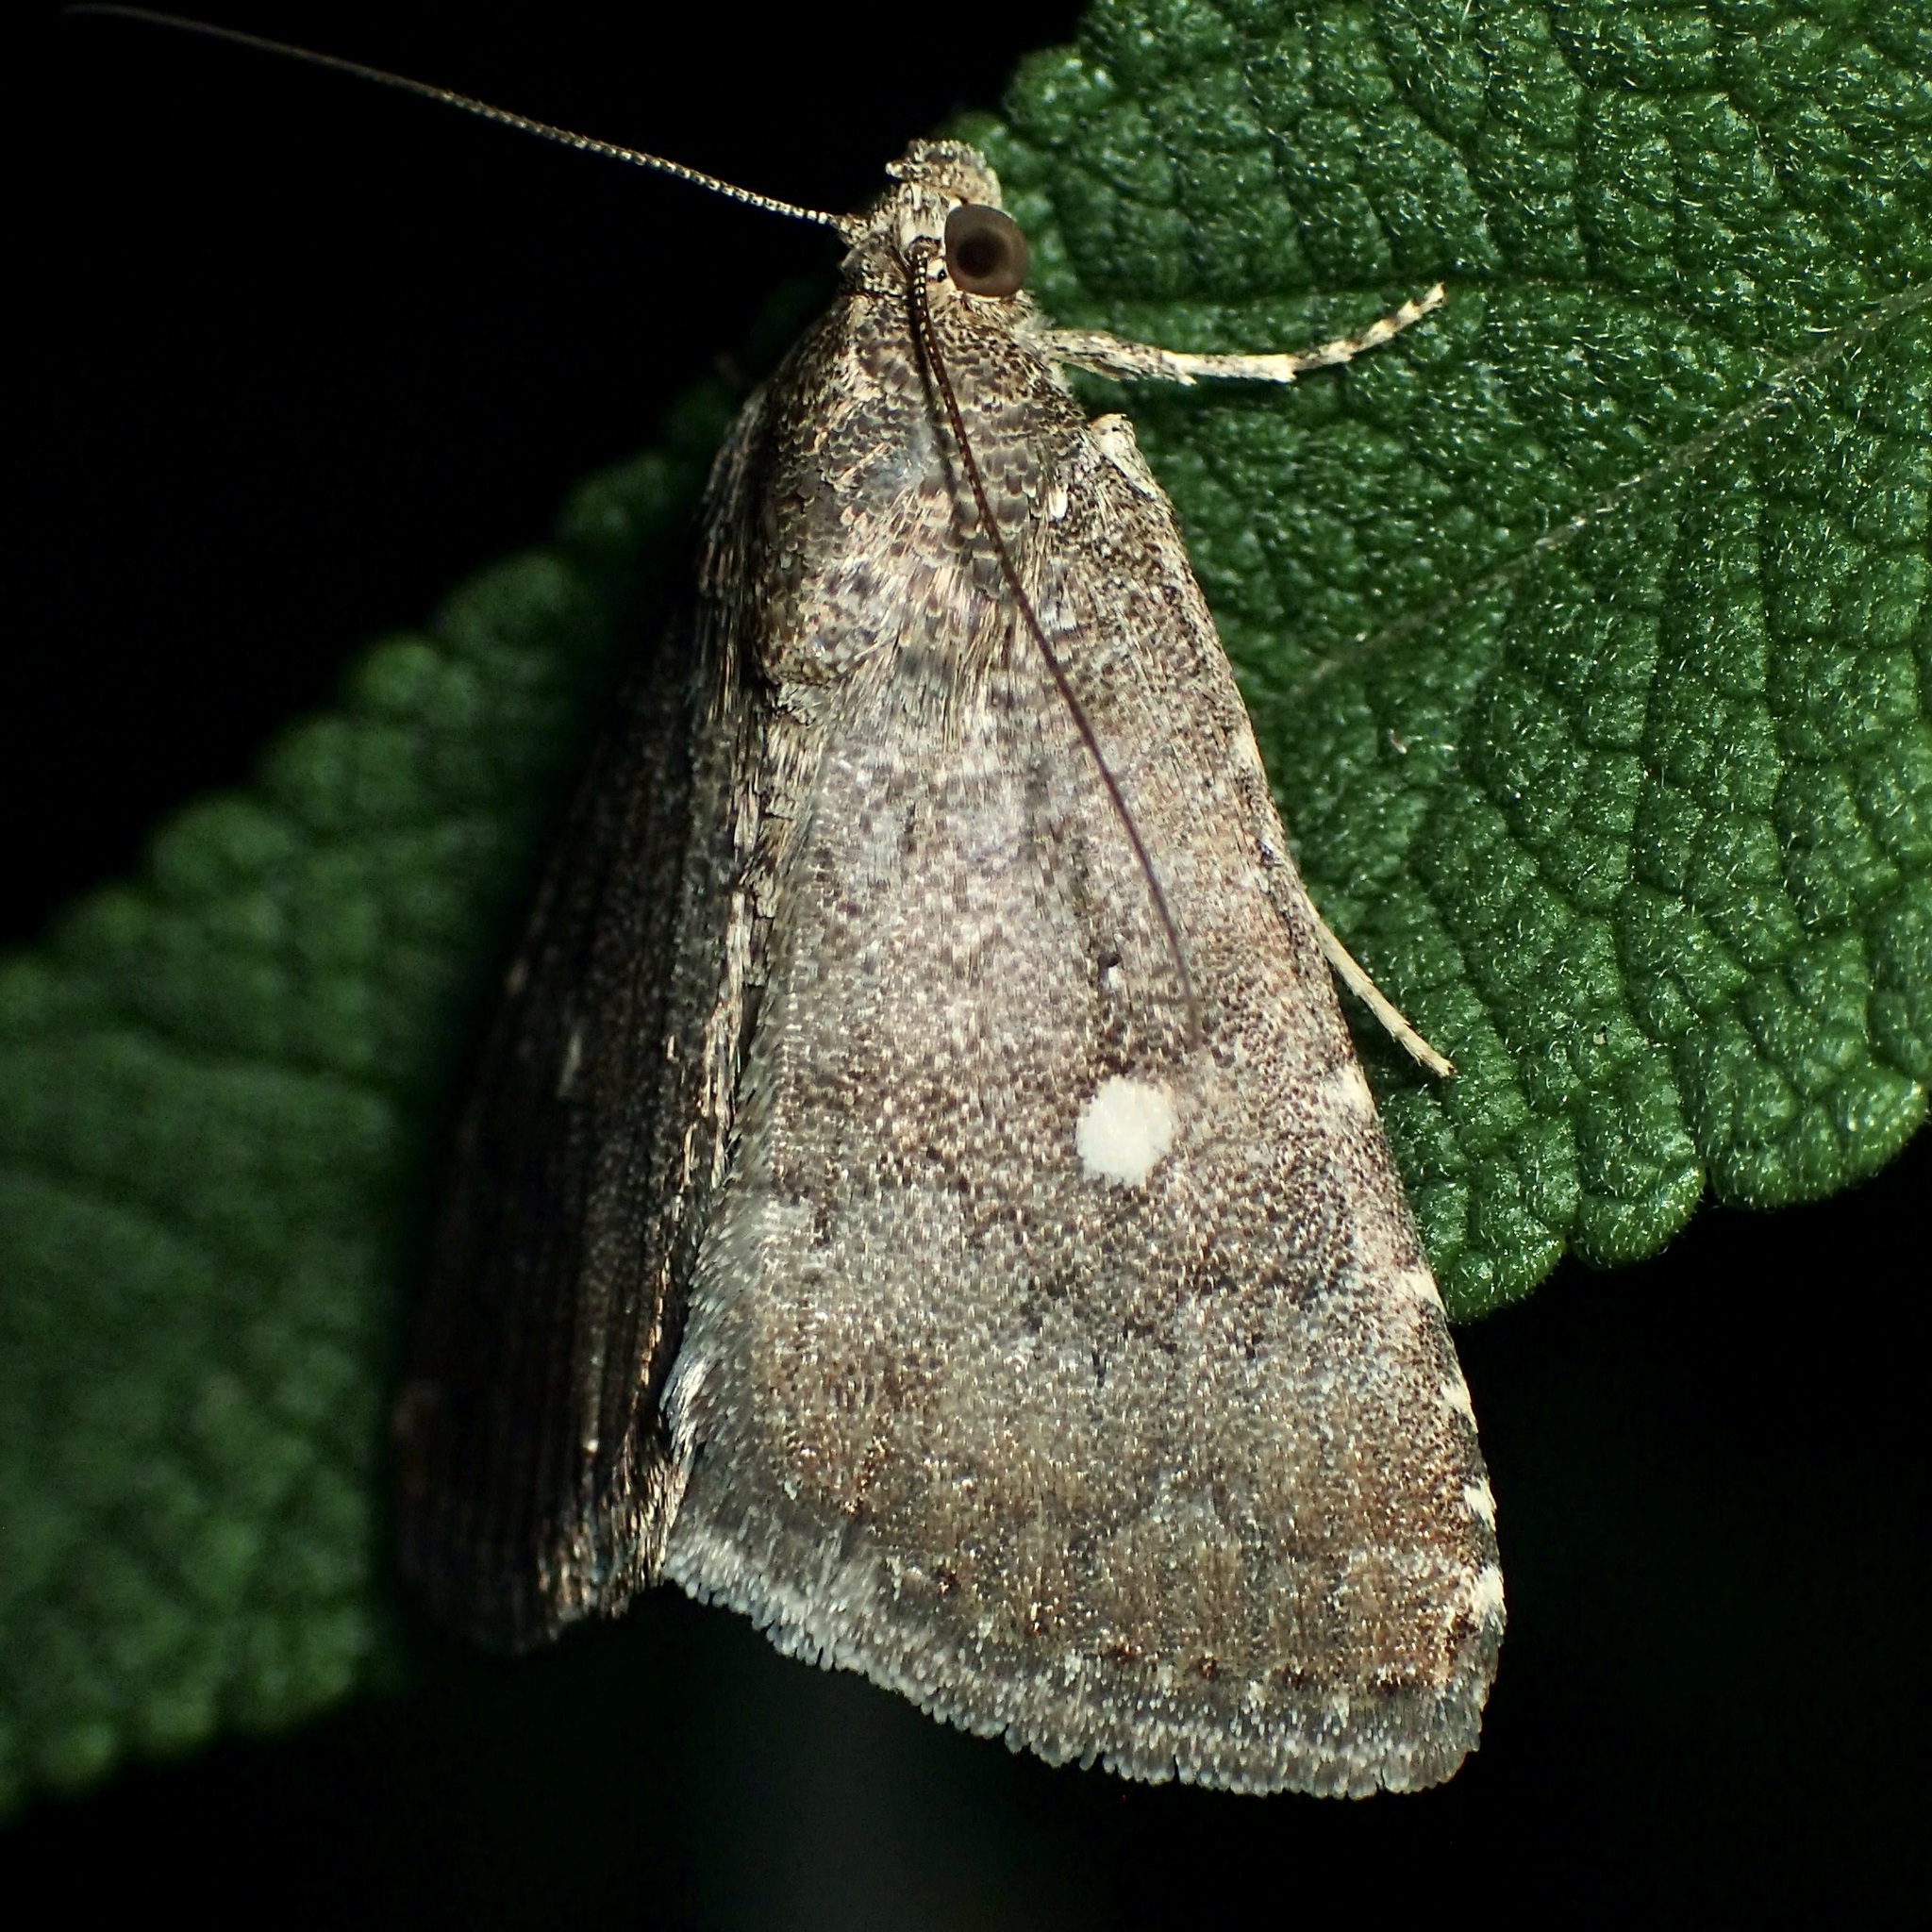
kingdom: Animalia
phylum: Arthropoda
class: Insecta
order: Lepidoptera
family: Noctuidae
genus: Amyna
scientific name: Amyna stricta
